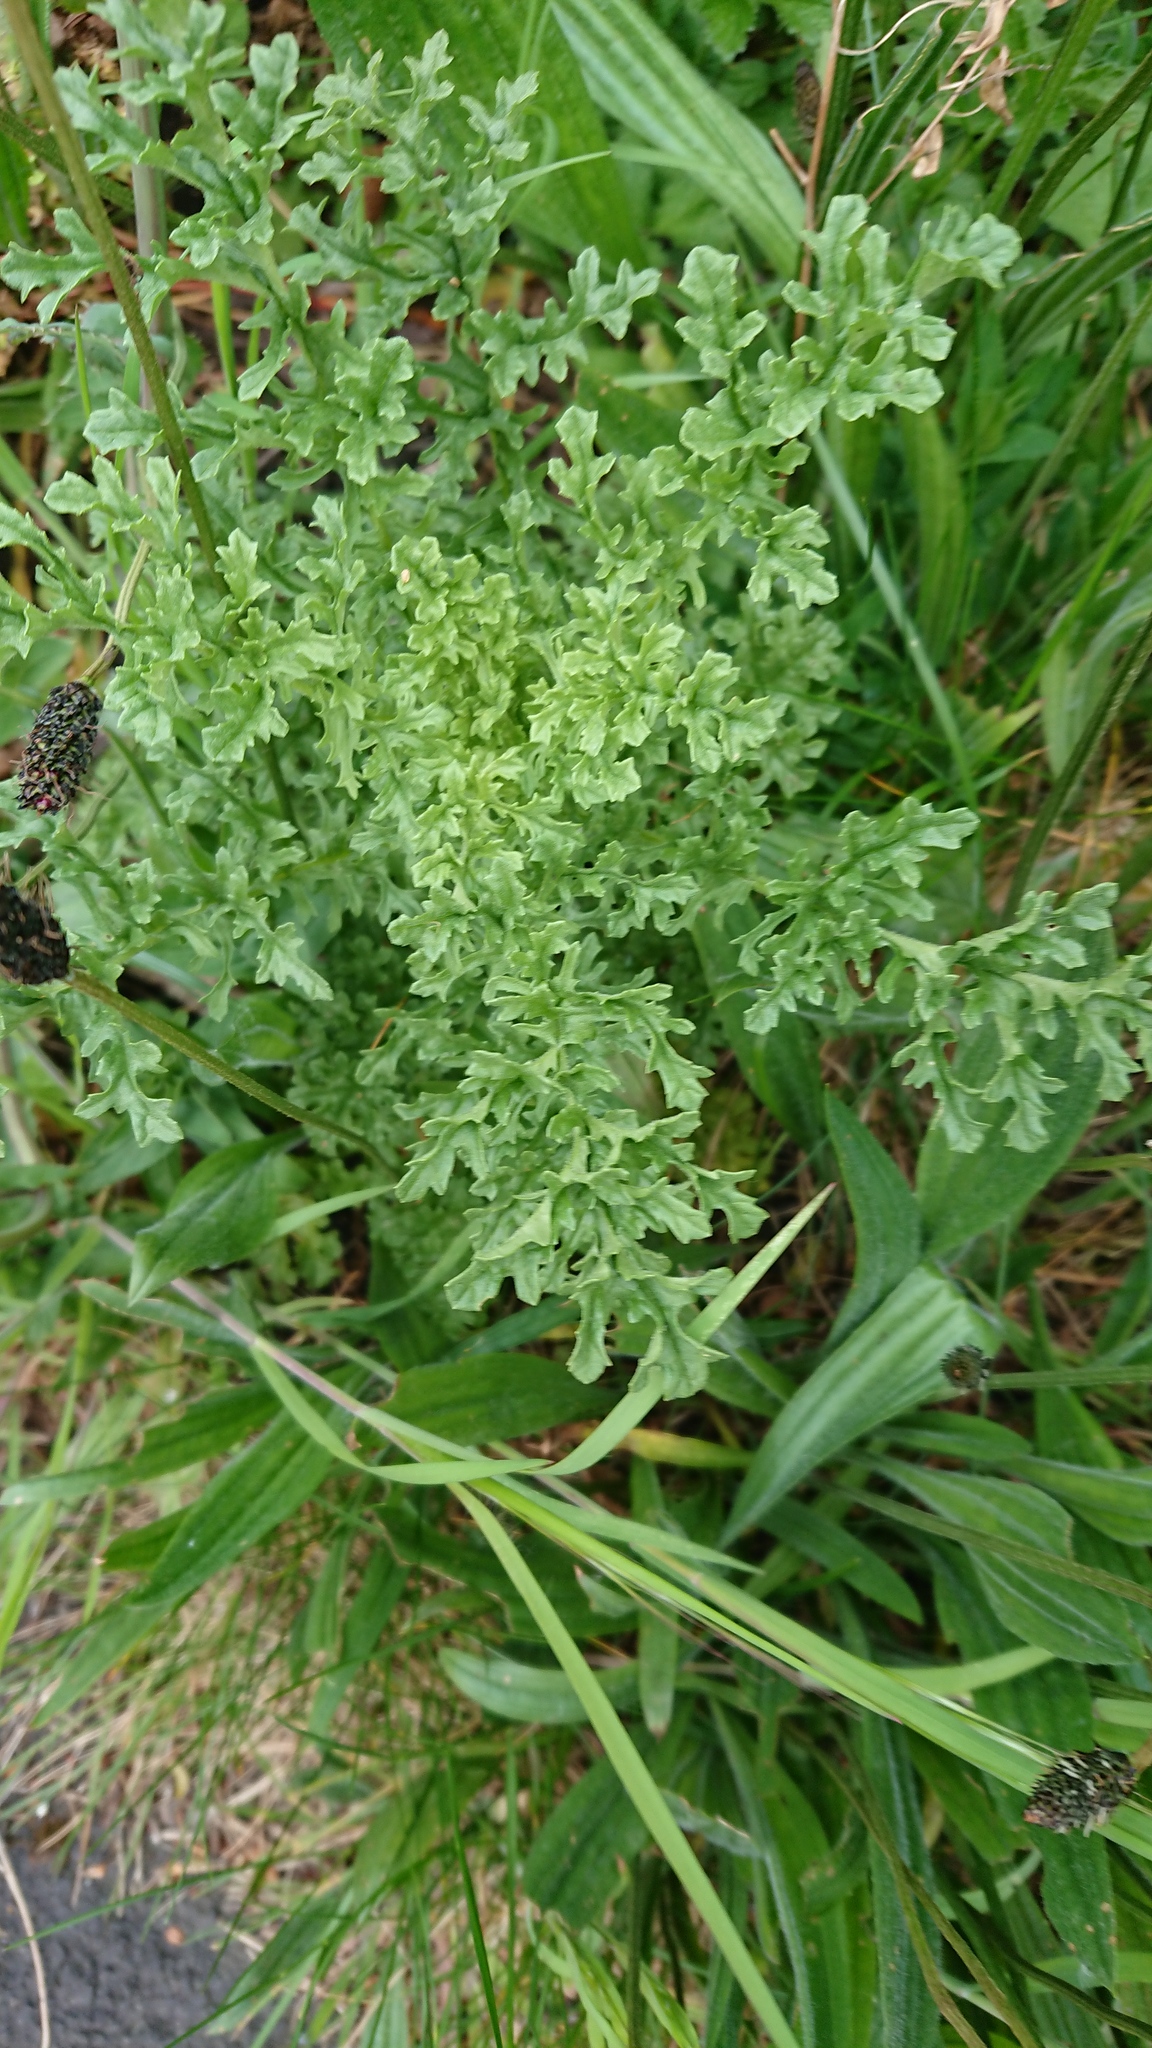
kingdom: Plantae
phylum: Tracheophyta
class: Magnoliopsida
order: Asterales
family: Asteraceae
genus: Jacobaea
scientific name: Jacobaea vulgaris
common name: Stinking willie
